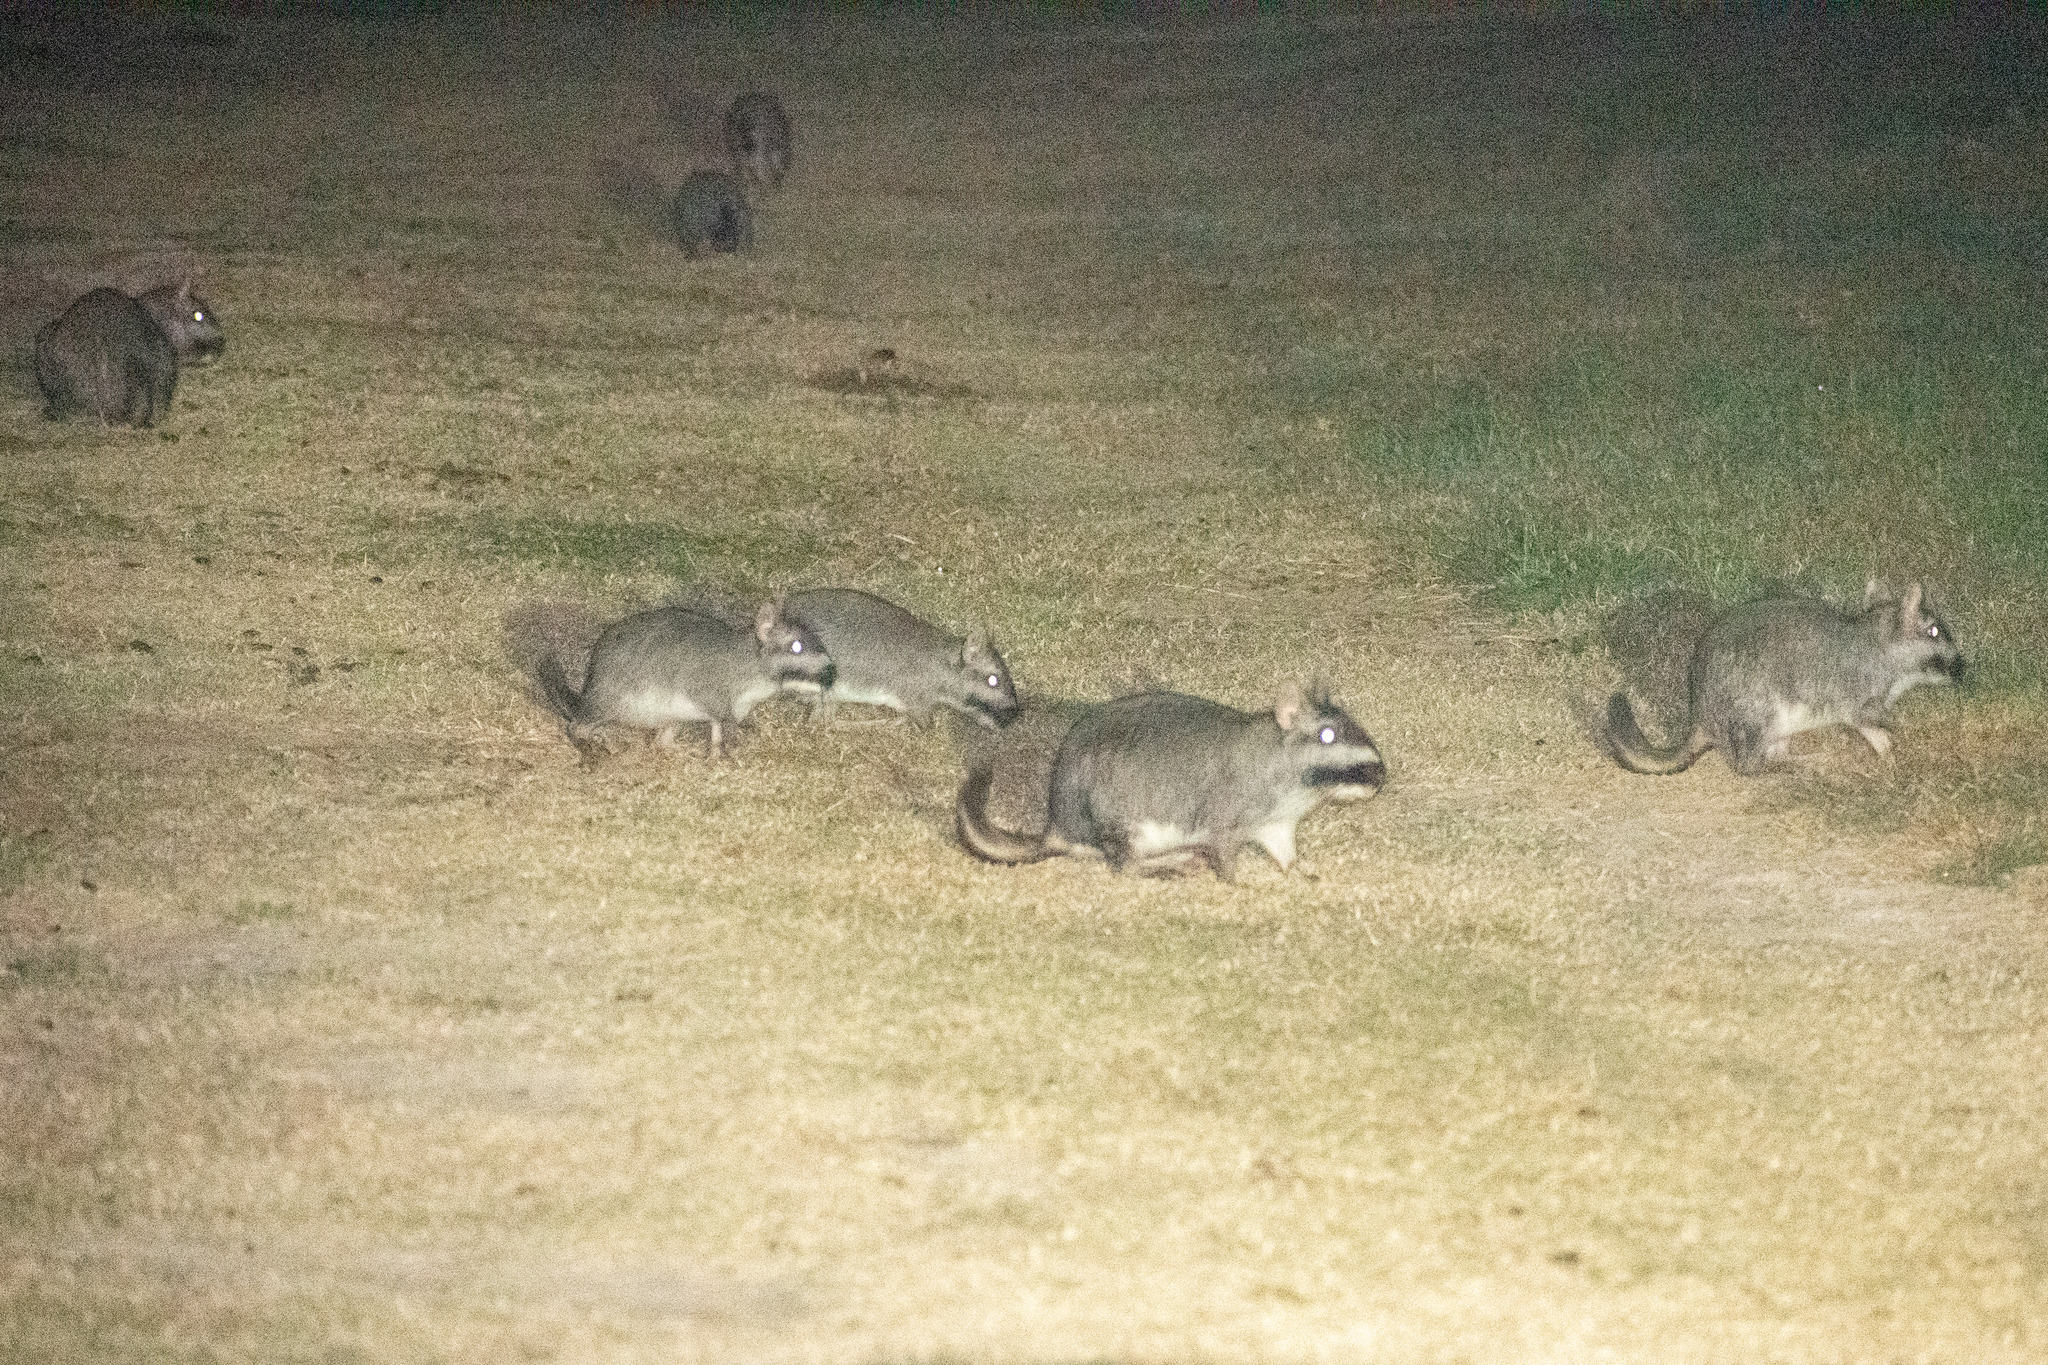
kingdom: Animalia
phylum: Chordata
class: Mammalia
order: Rodentia
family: Chinchillidae
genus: Lagostomus
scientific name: Lagostomus maximus
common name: Plains viscacha
